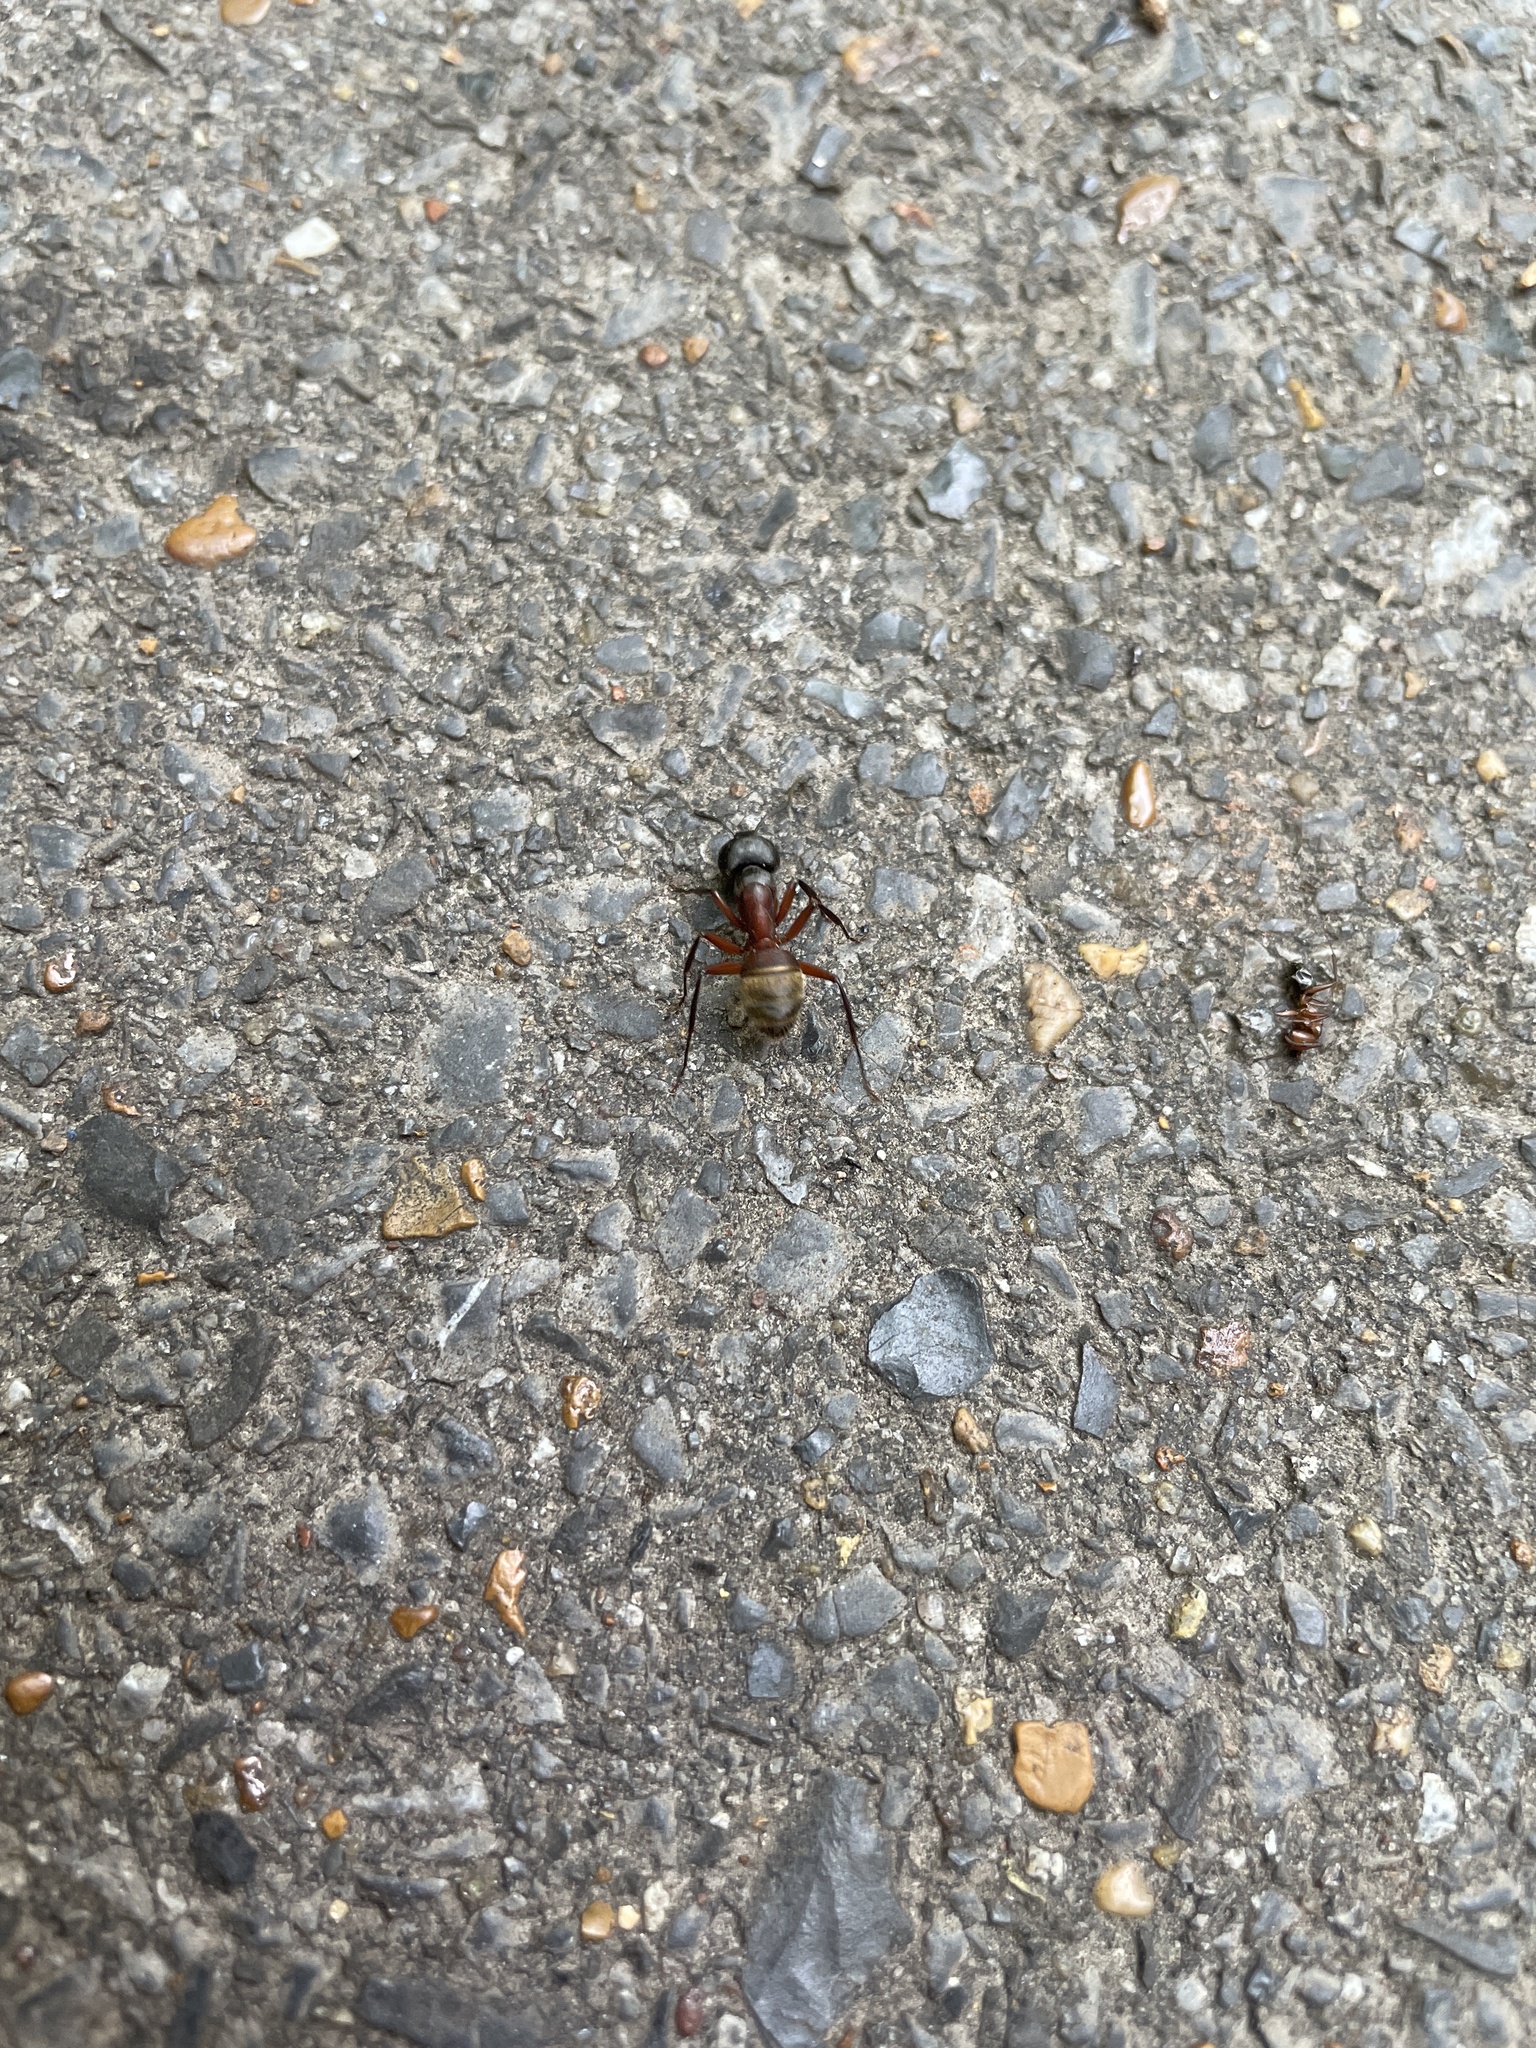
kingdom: Animalia
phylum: Arthropoda
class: Insecta
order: Hymenoptera
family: Formicidae
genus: Camponotus
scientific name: Camponotus chromaiodes
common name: Red carpenter ant
